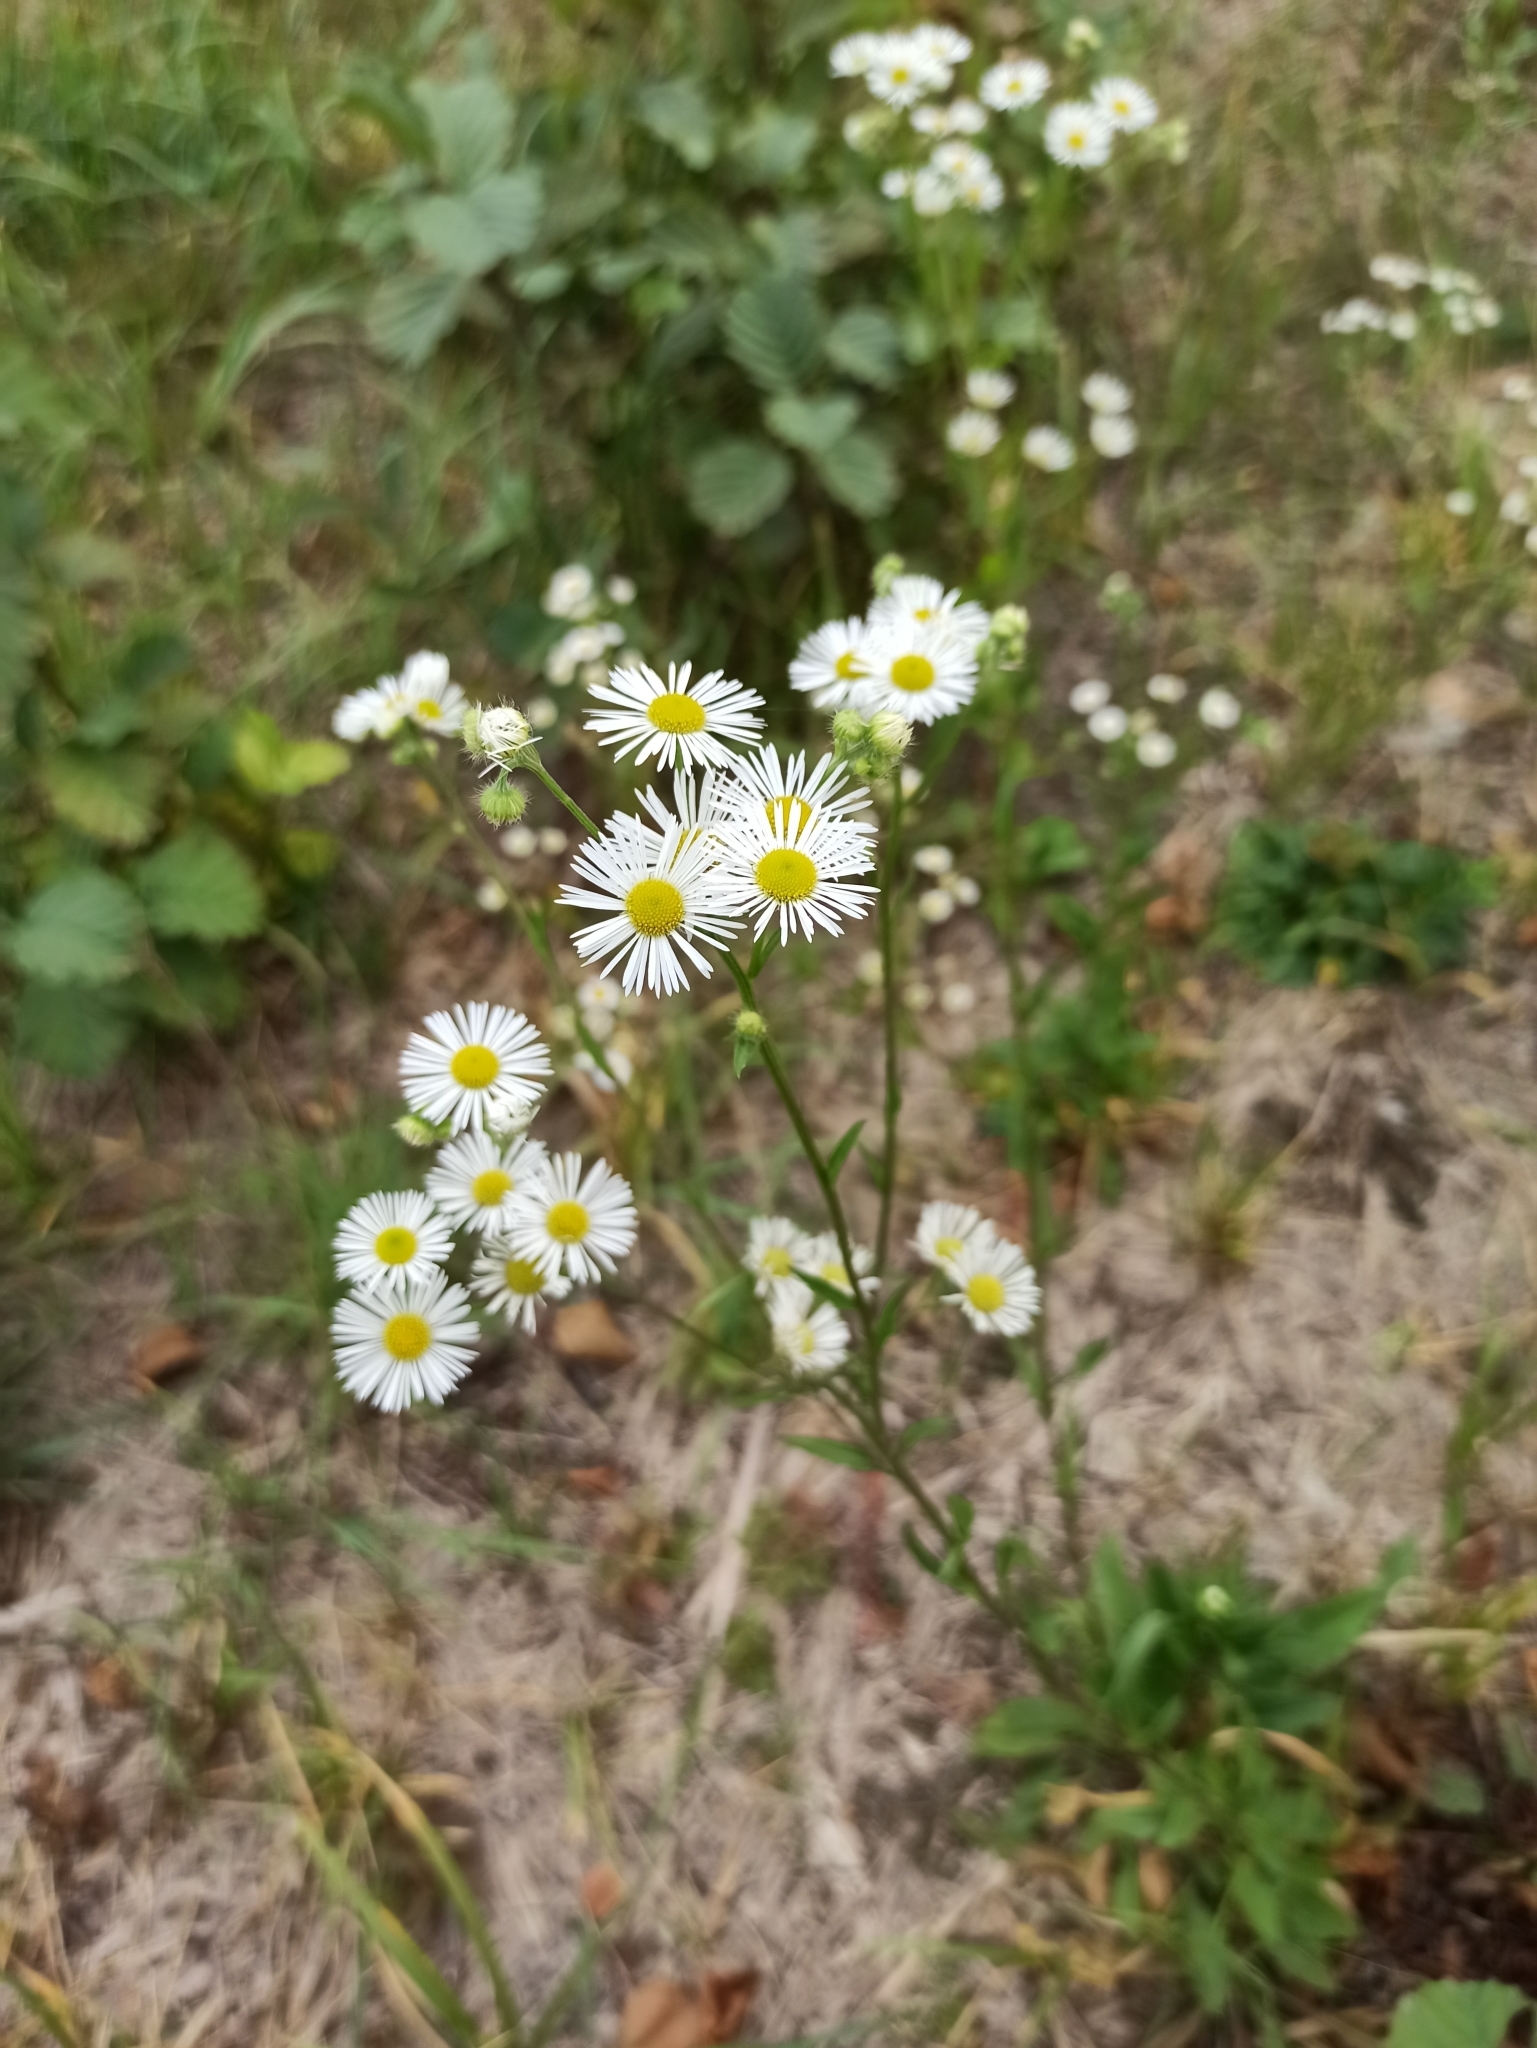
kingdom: Plantae
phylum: Tracheophyta
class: Magnoliopsida
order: Asterales
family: Asteraceae
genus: Erigeron
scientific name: Erigeron annuus
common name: Tall fleabane
